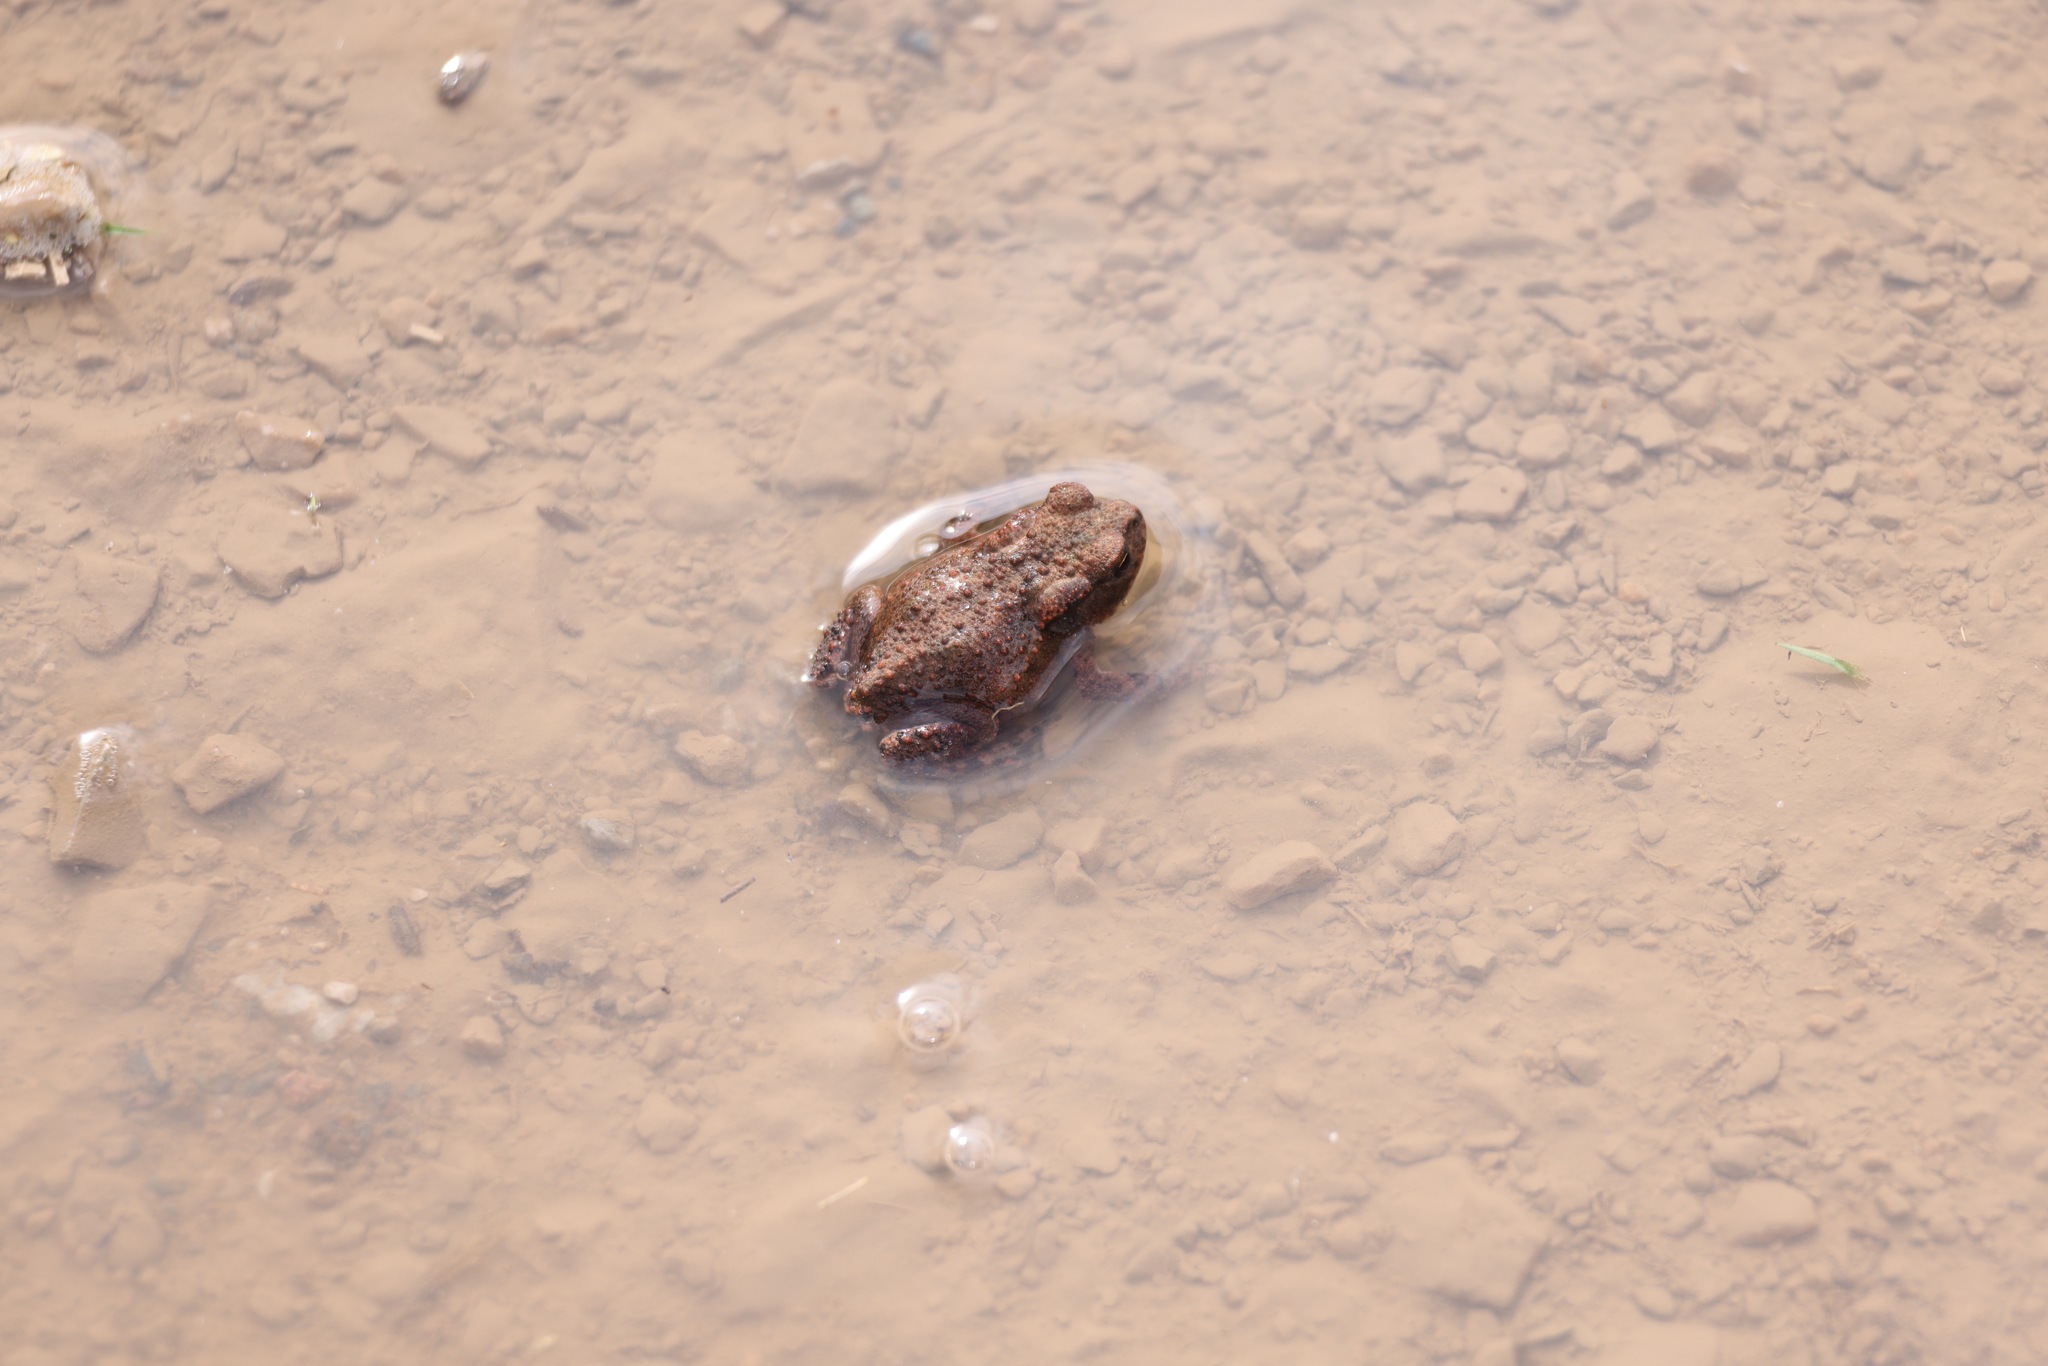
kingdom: Animalia
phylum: Chordata
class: Amphibia
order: Anura
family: Bufonidae
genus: Bufo
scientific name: Bufo bufo
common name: Common toad
